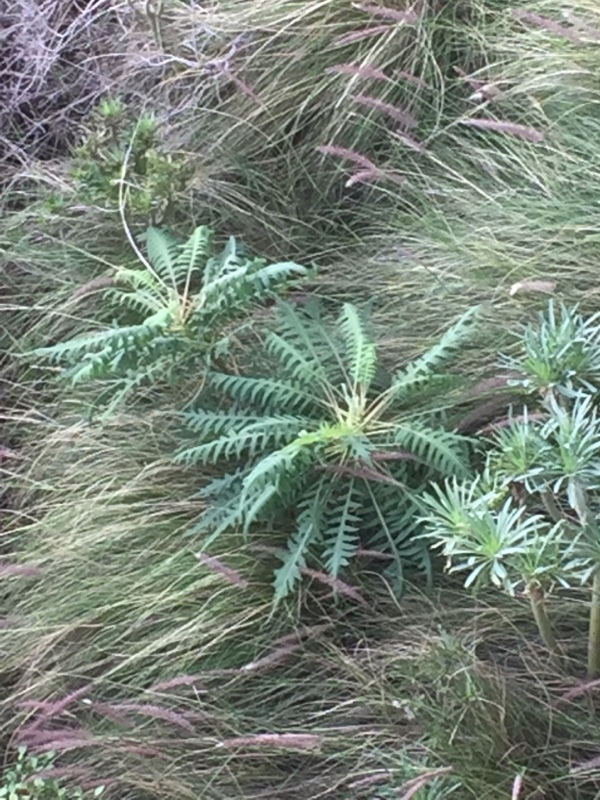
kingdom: Plantae
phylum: Tracheophyta
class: Magnoliopsida
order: Asterales
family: Asteraceae
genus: Sonchus
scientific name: Sonchus palmensis
